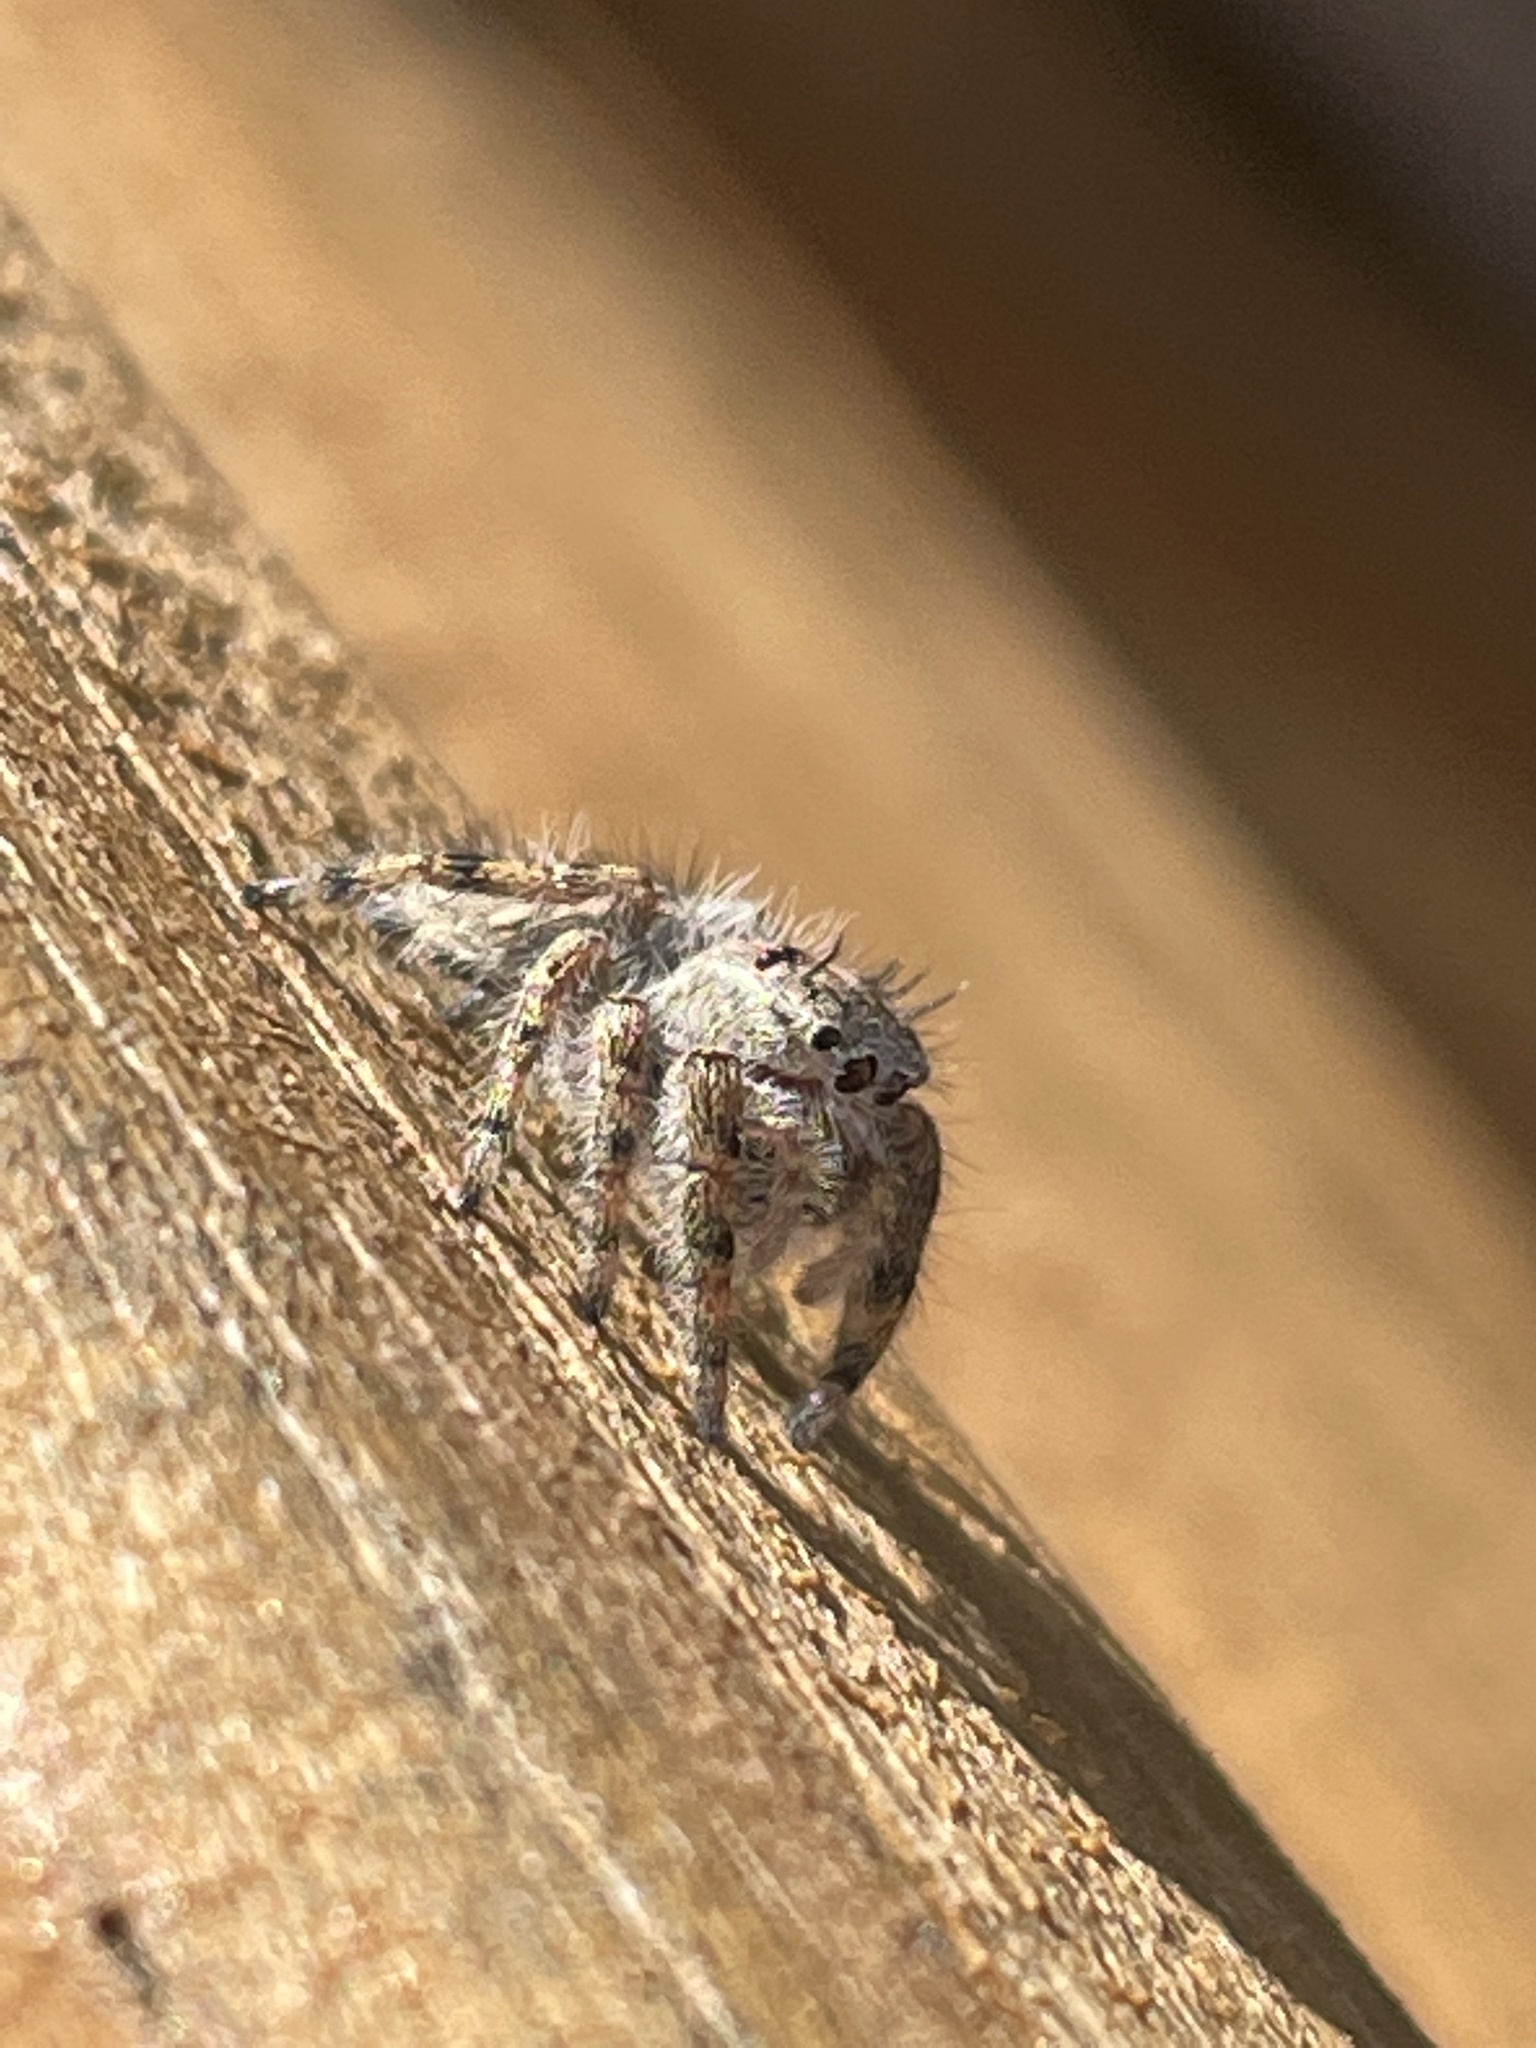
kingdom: Animalia
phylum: Arthropoda
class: Arachnida
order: Araneae
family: Salticidae
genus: Phidippus
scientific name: Phidippus putnami
